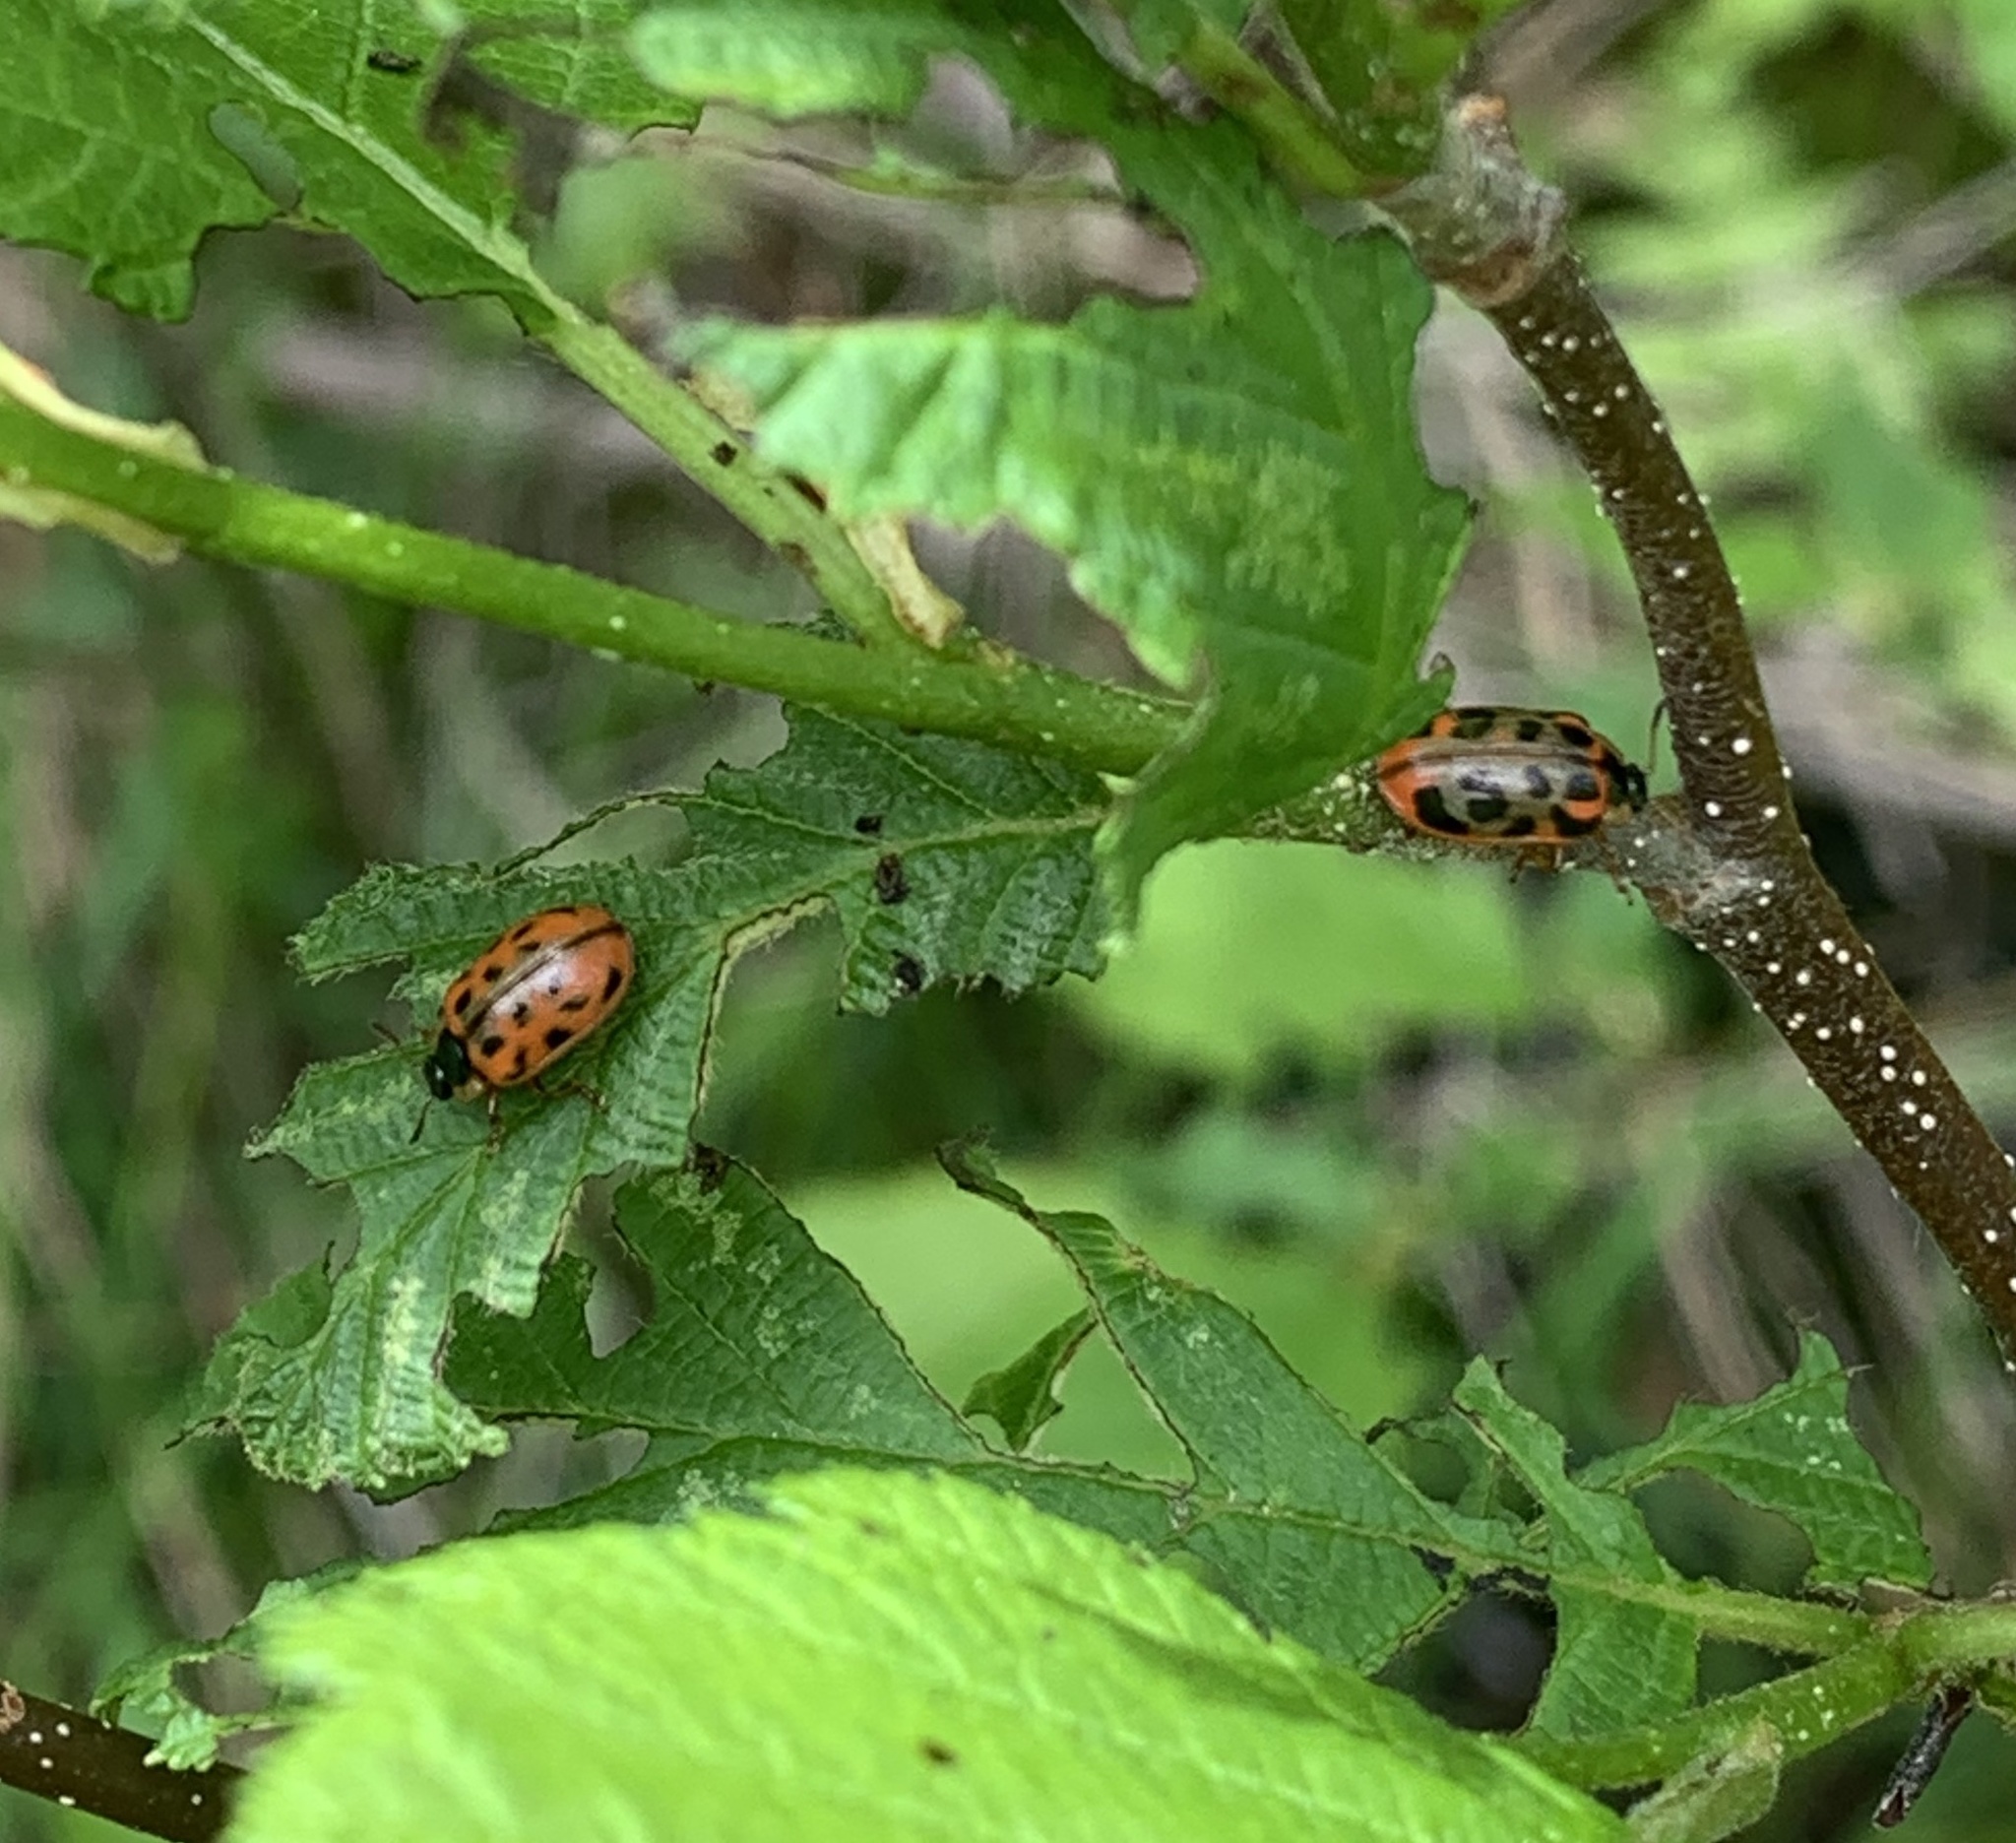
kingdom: Animalia
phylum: Arthropoda
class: Insecta
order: Coleoptera
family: Chrysomelidae
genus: Chrysomela
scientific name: Chrysomela mainensis
